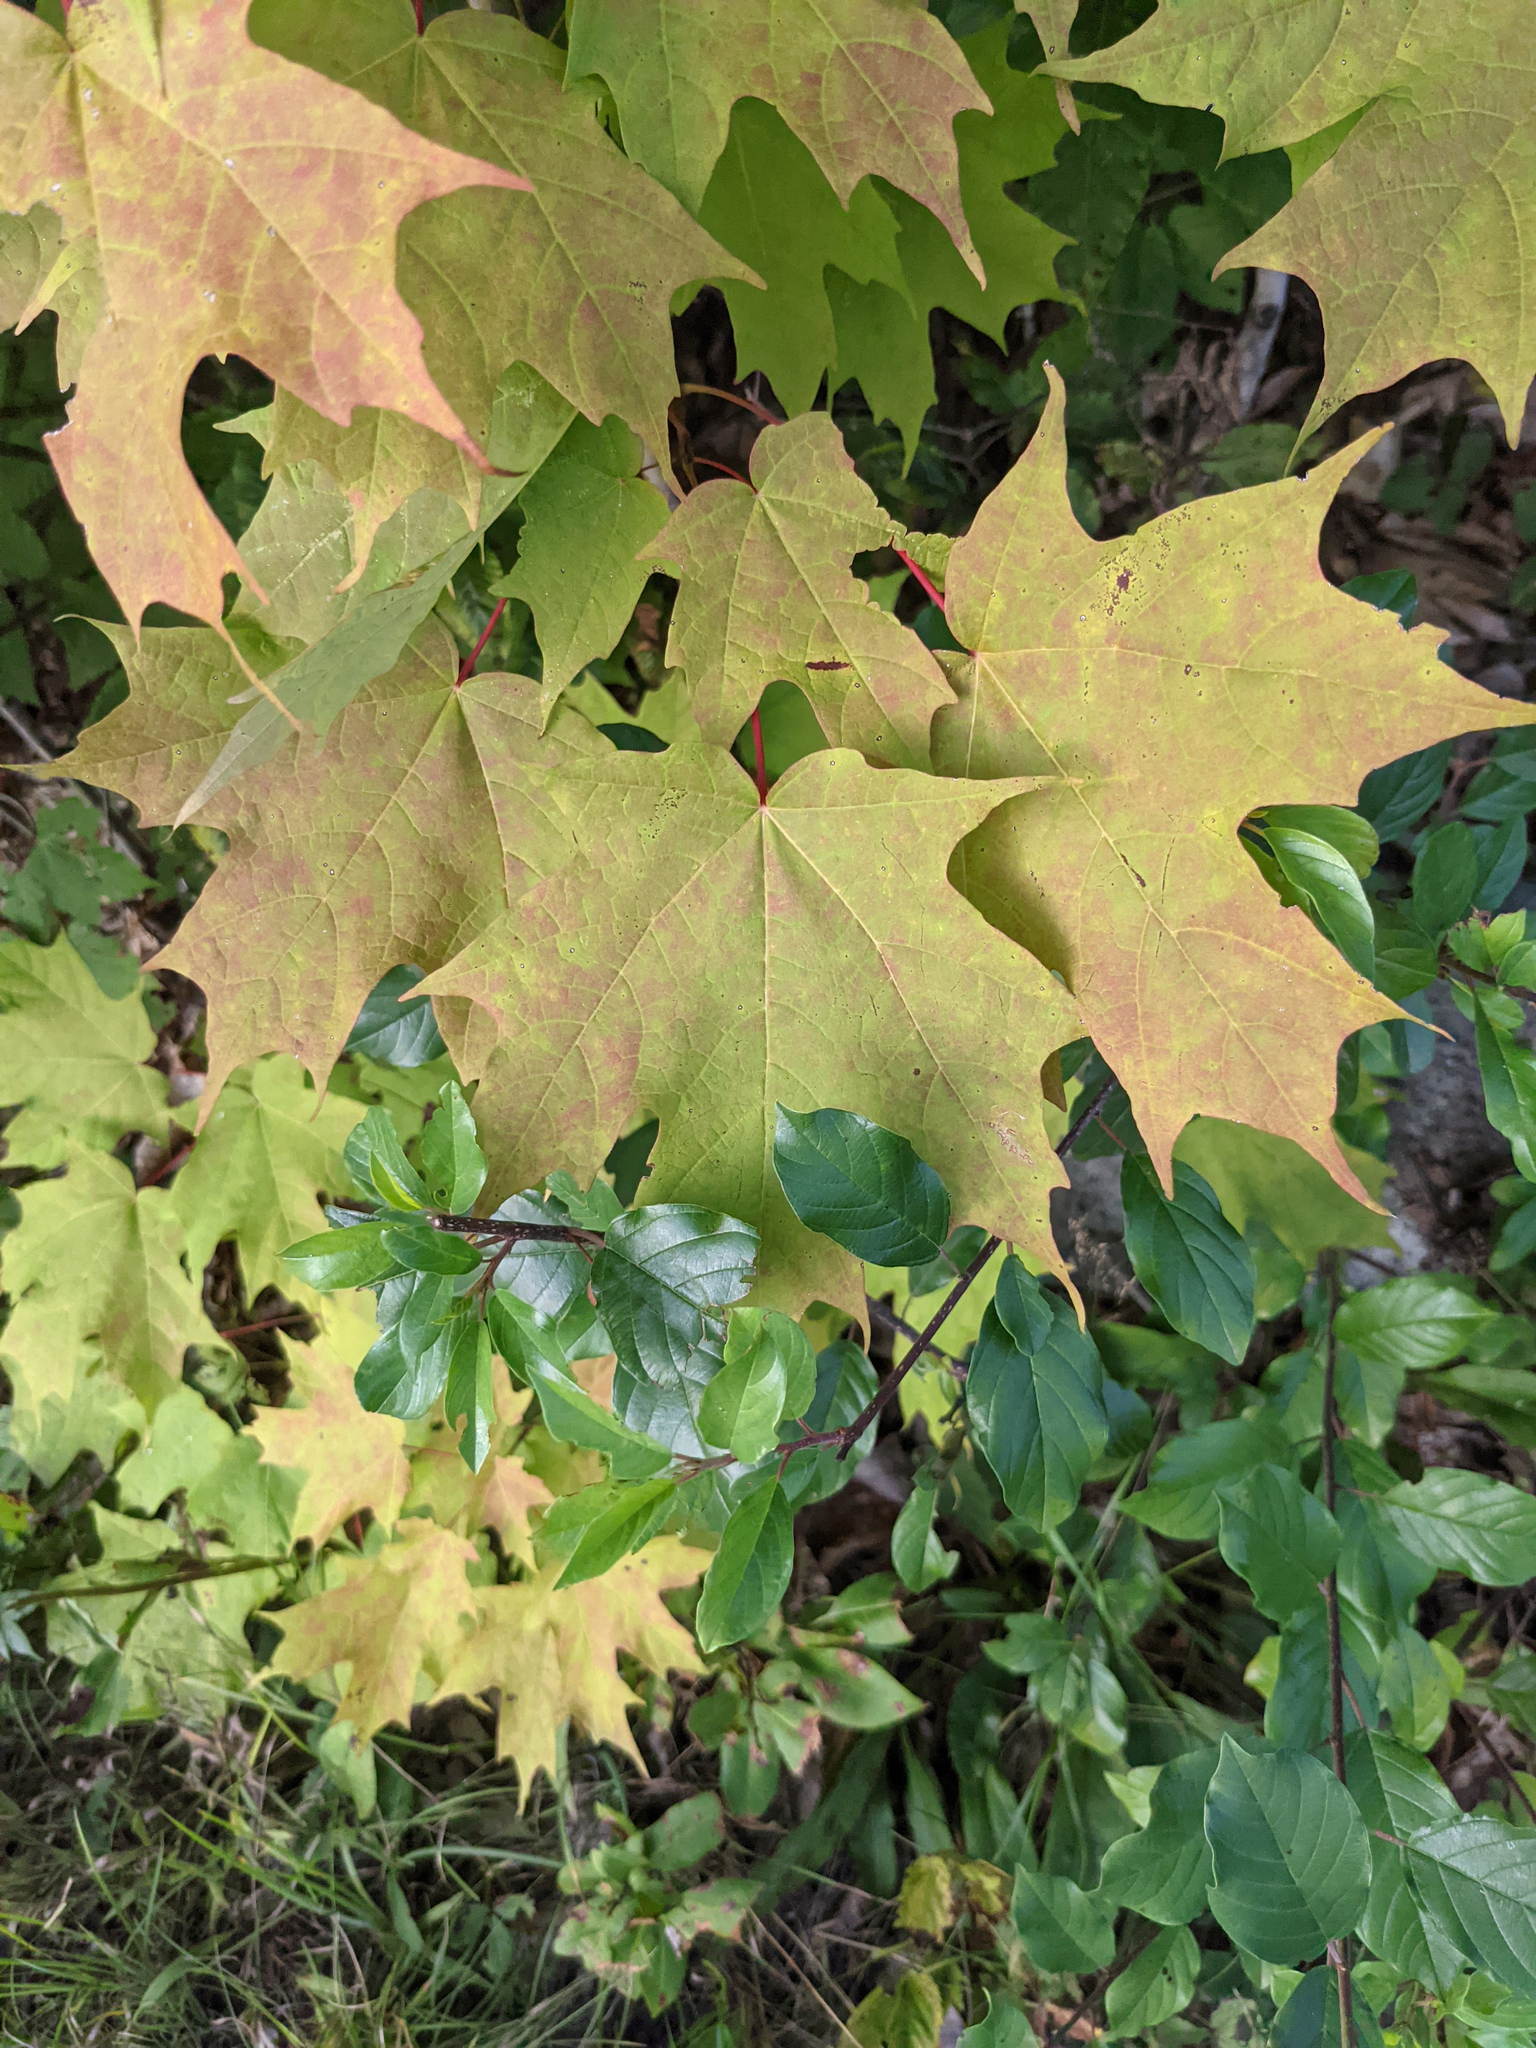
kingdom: Plantae
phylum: Tracheophyta
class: Magnoliopsida
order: Sapindales
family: Sapindaceae
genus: Acer
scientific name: Acer saccharum
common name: Sugar maple
